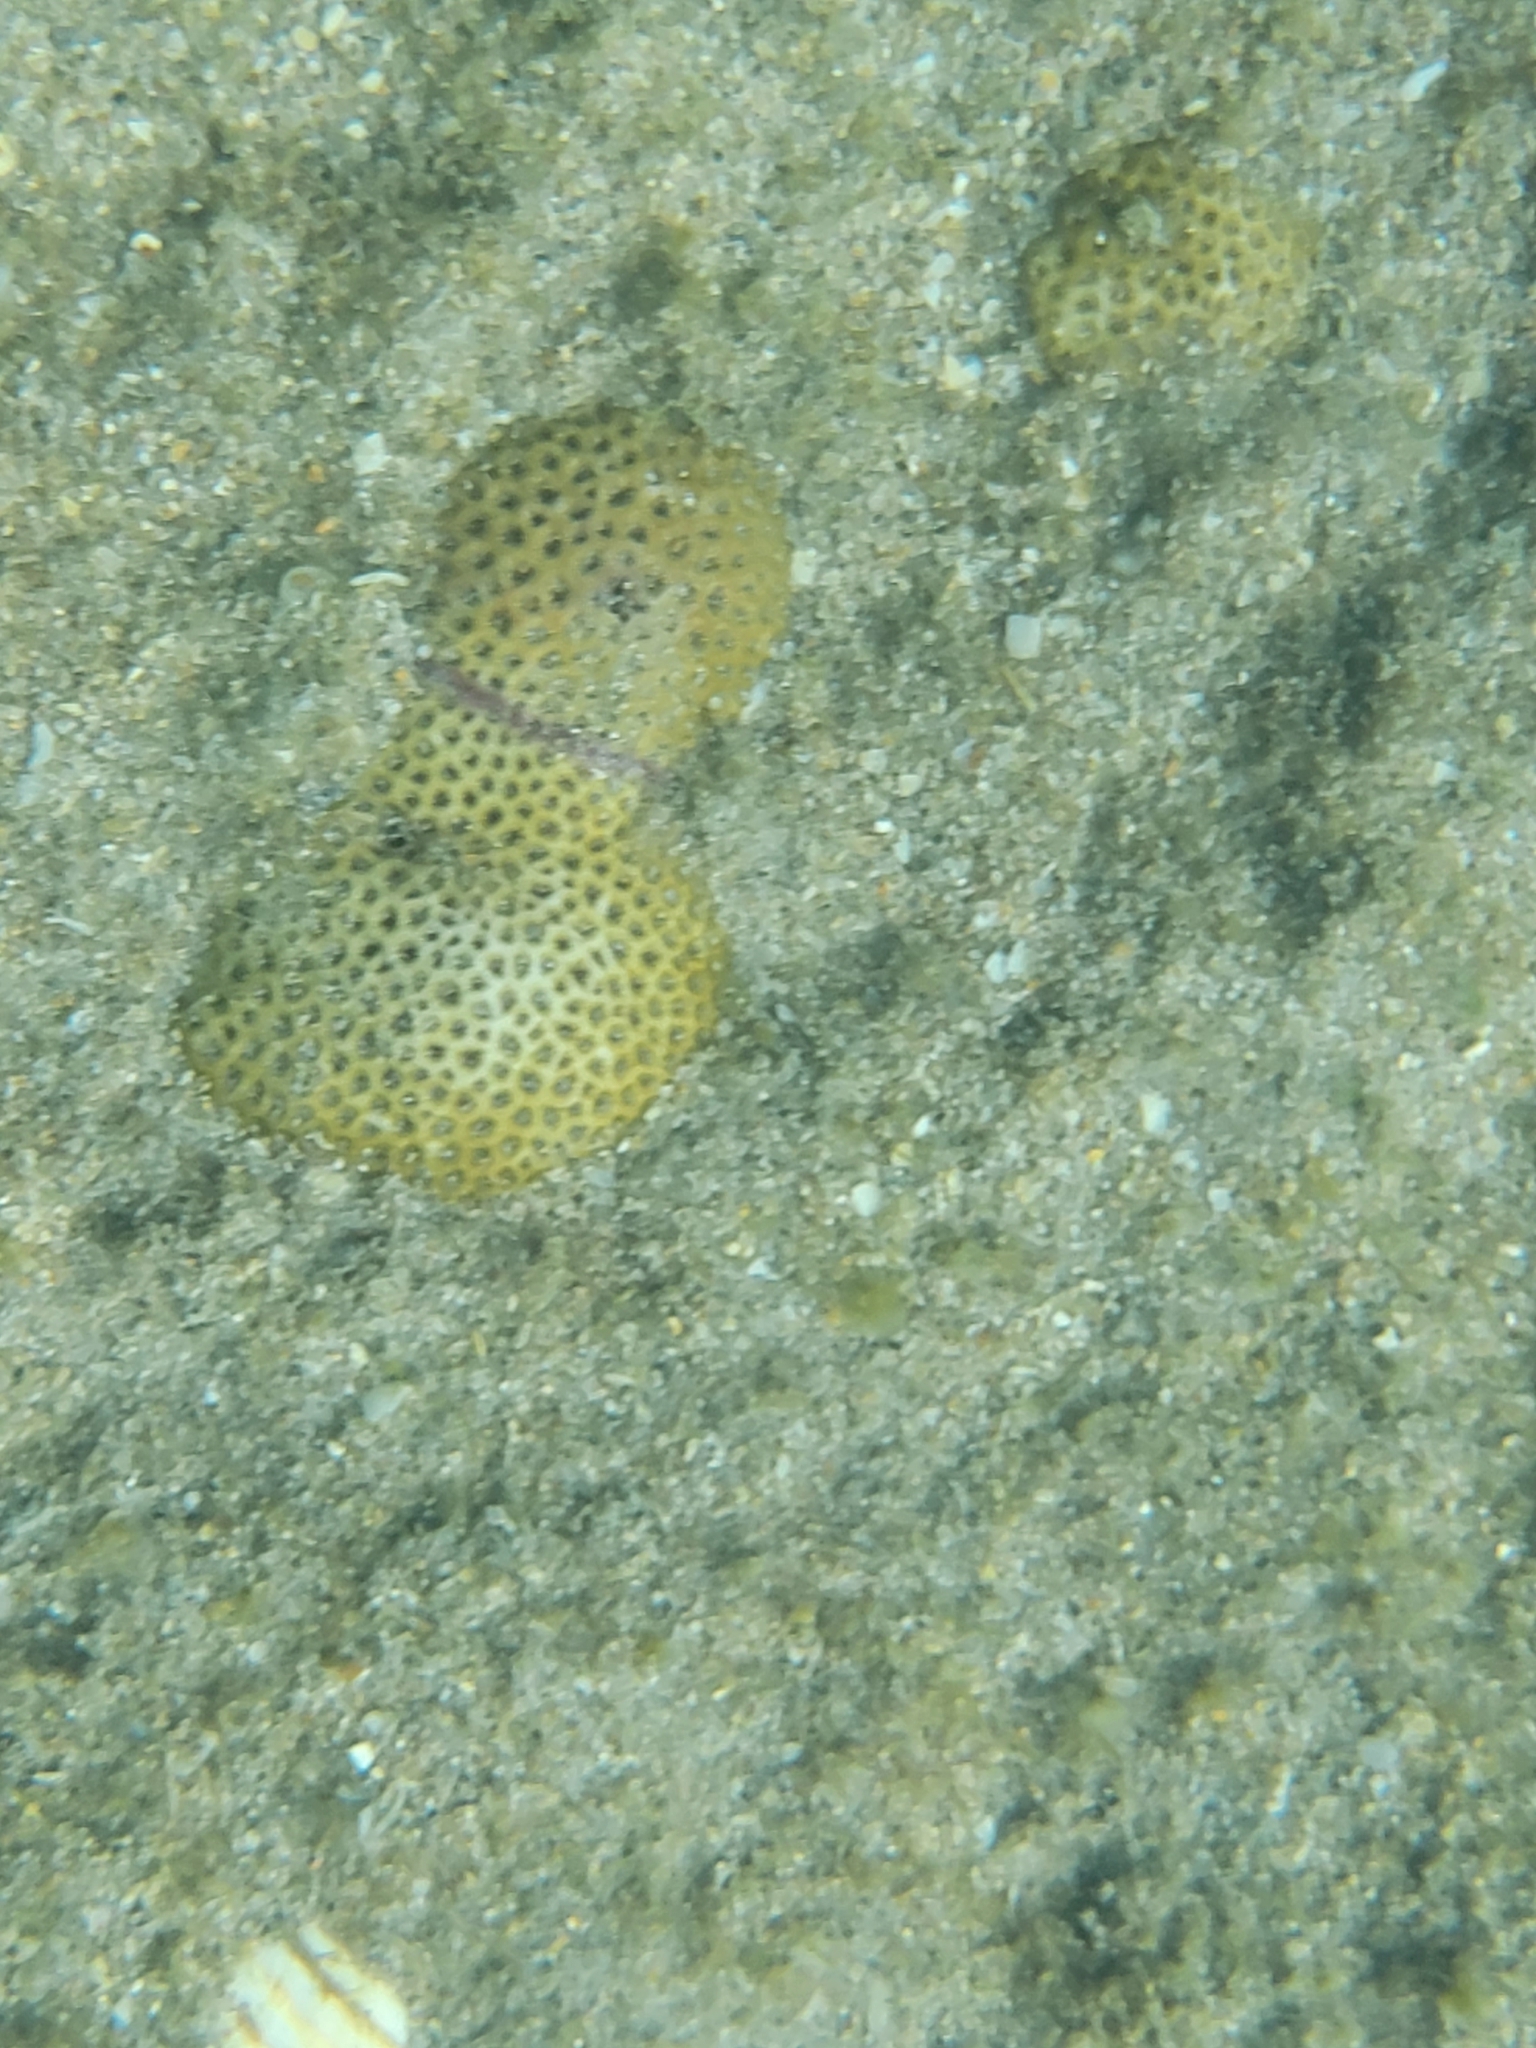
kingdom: Animalia
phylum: Cnidaria
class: Anthozoa
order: Scleractinia
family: Rhizangiidae
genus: Siderastrea
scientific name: Siderastrea radians
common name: Lesser starlet coral
